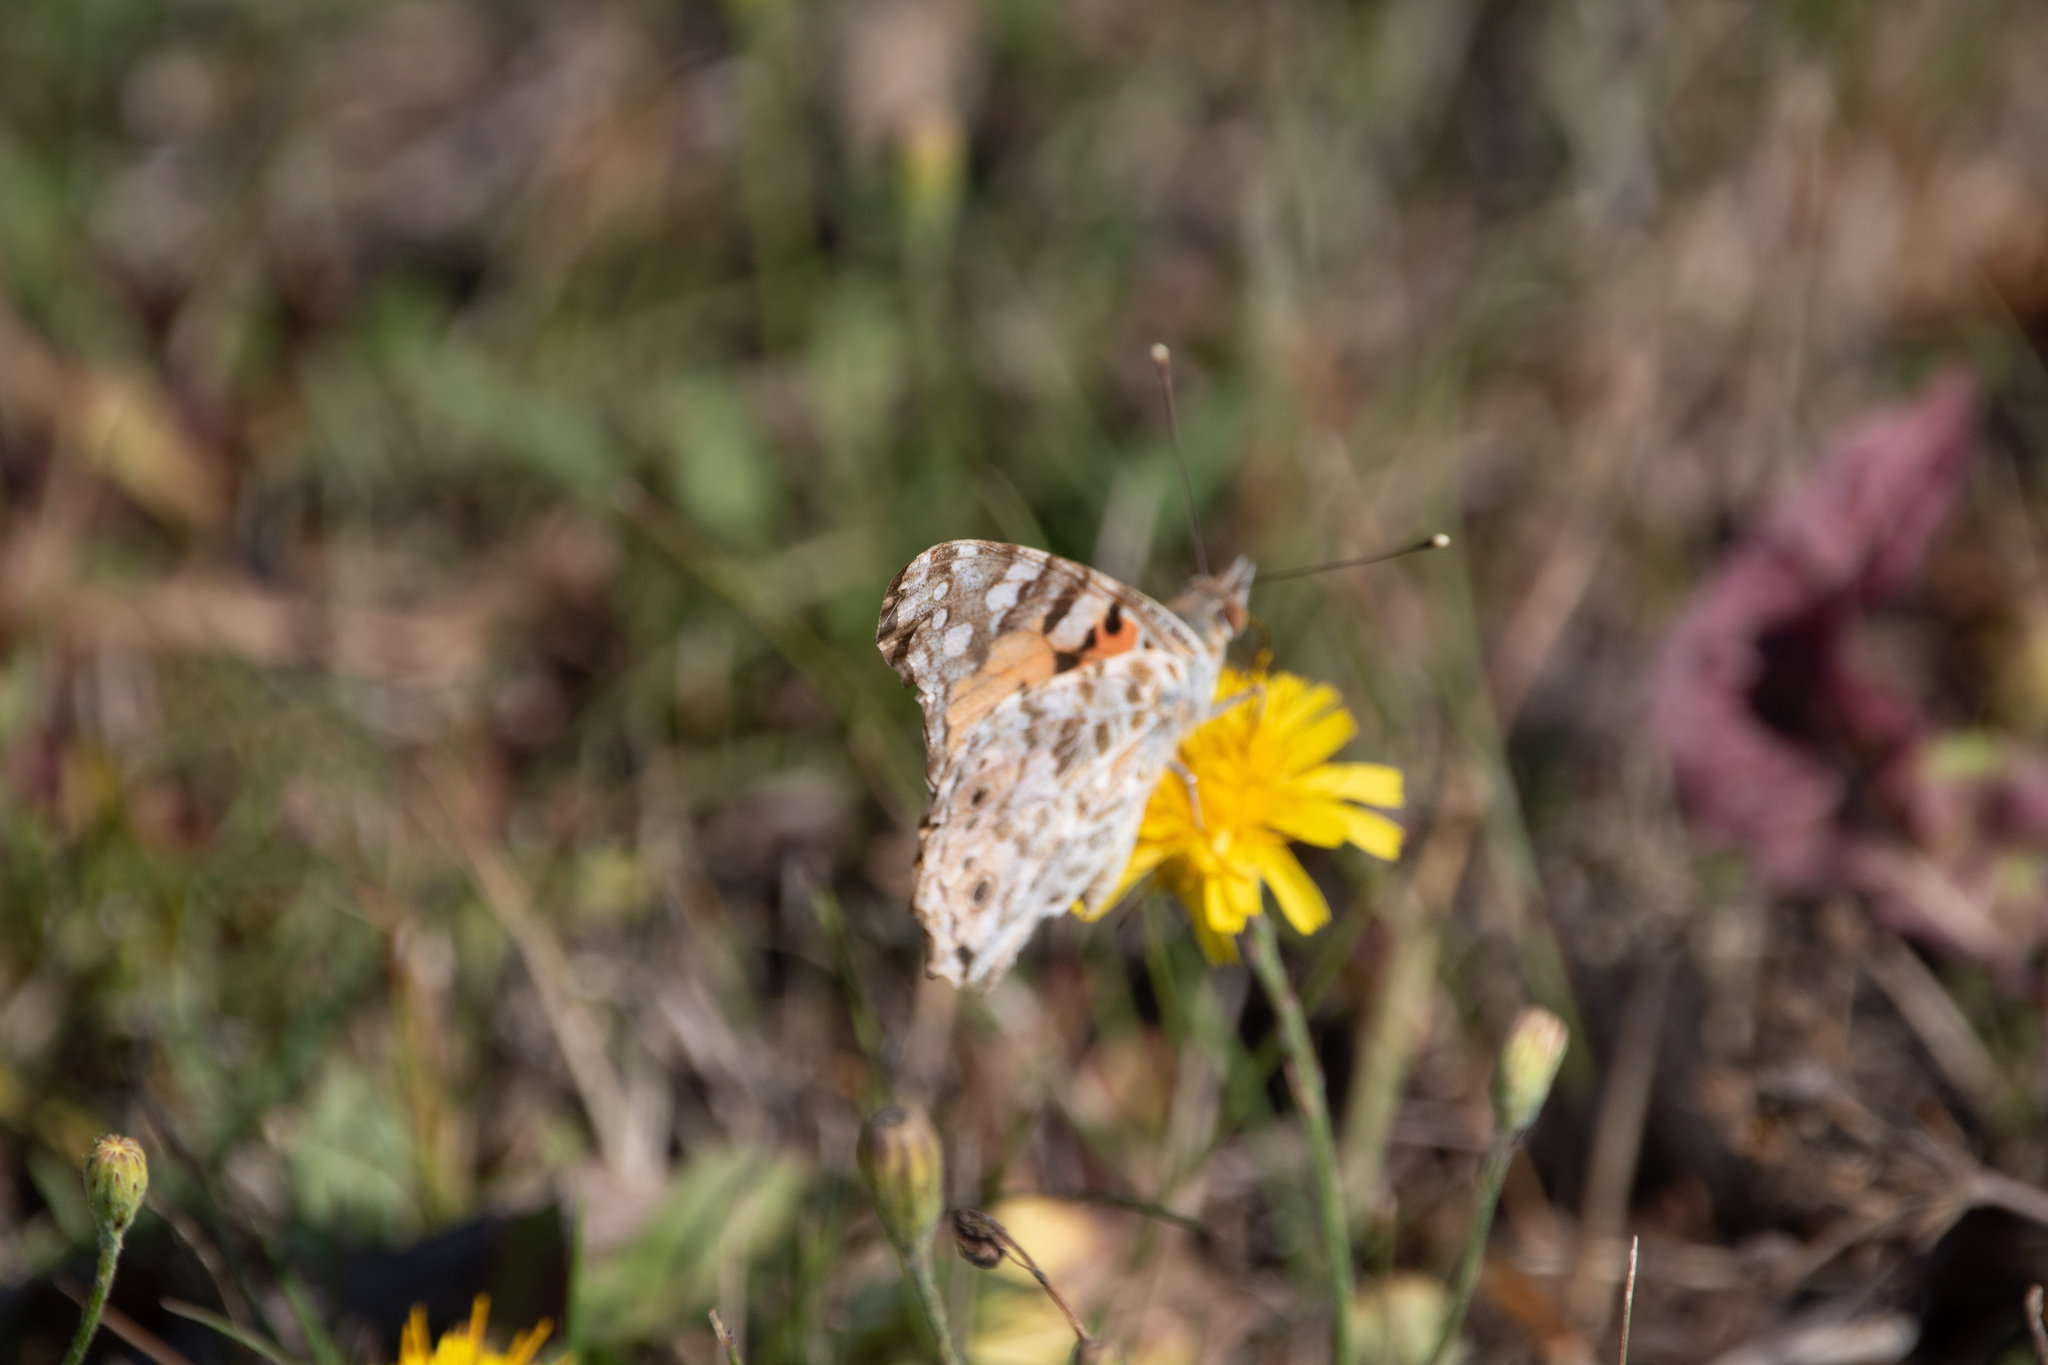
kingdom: Animalia
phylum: Arthropoda
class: Insecta
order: Lepidoptera
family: Nymphalidae
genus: Vanessa
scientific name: Vanessa cardui
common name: Painted lady
